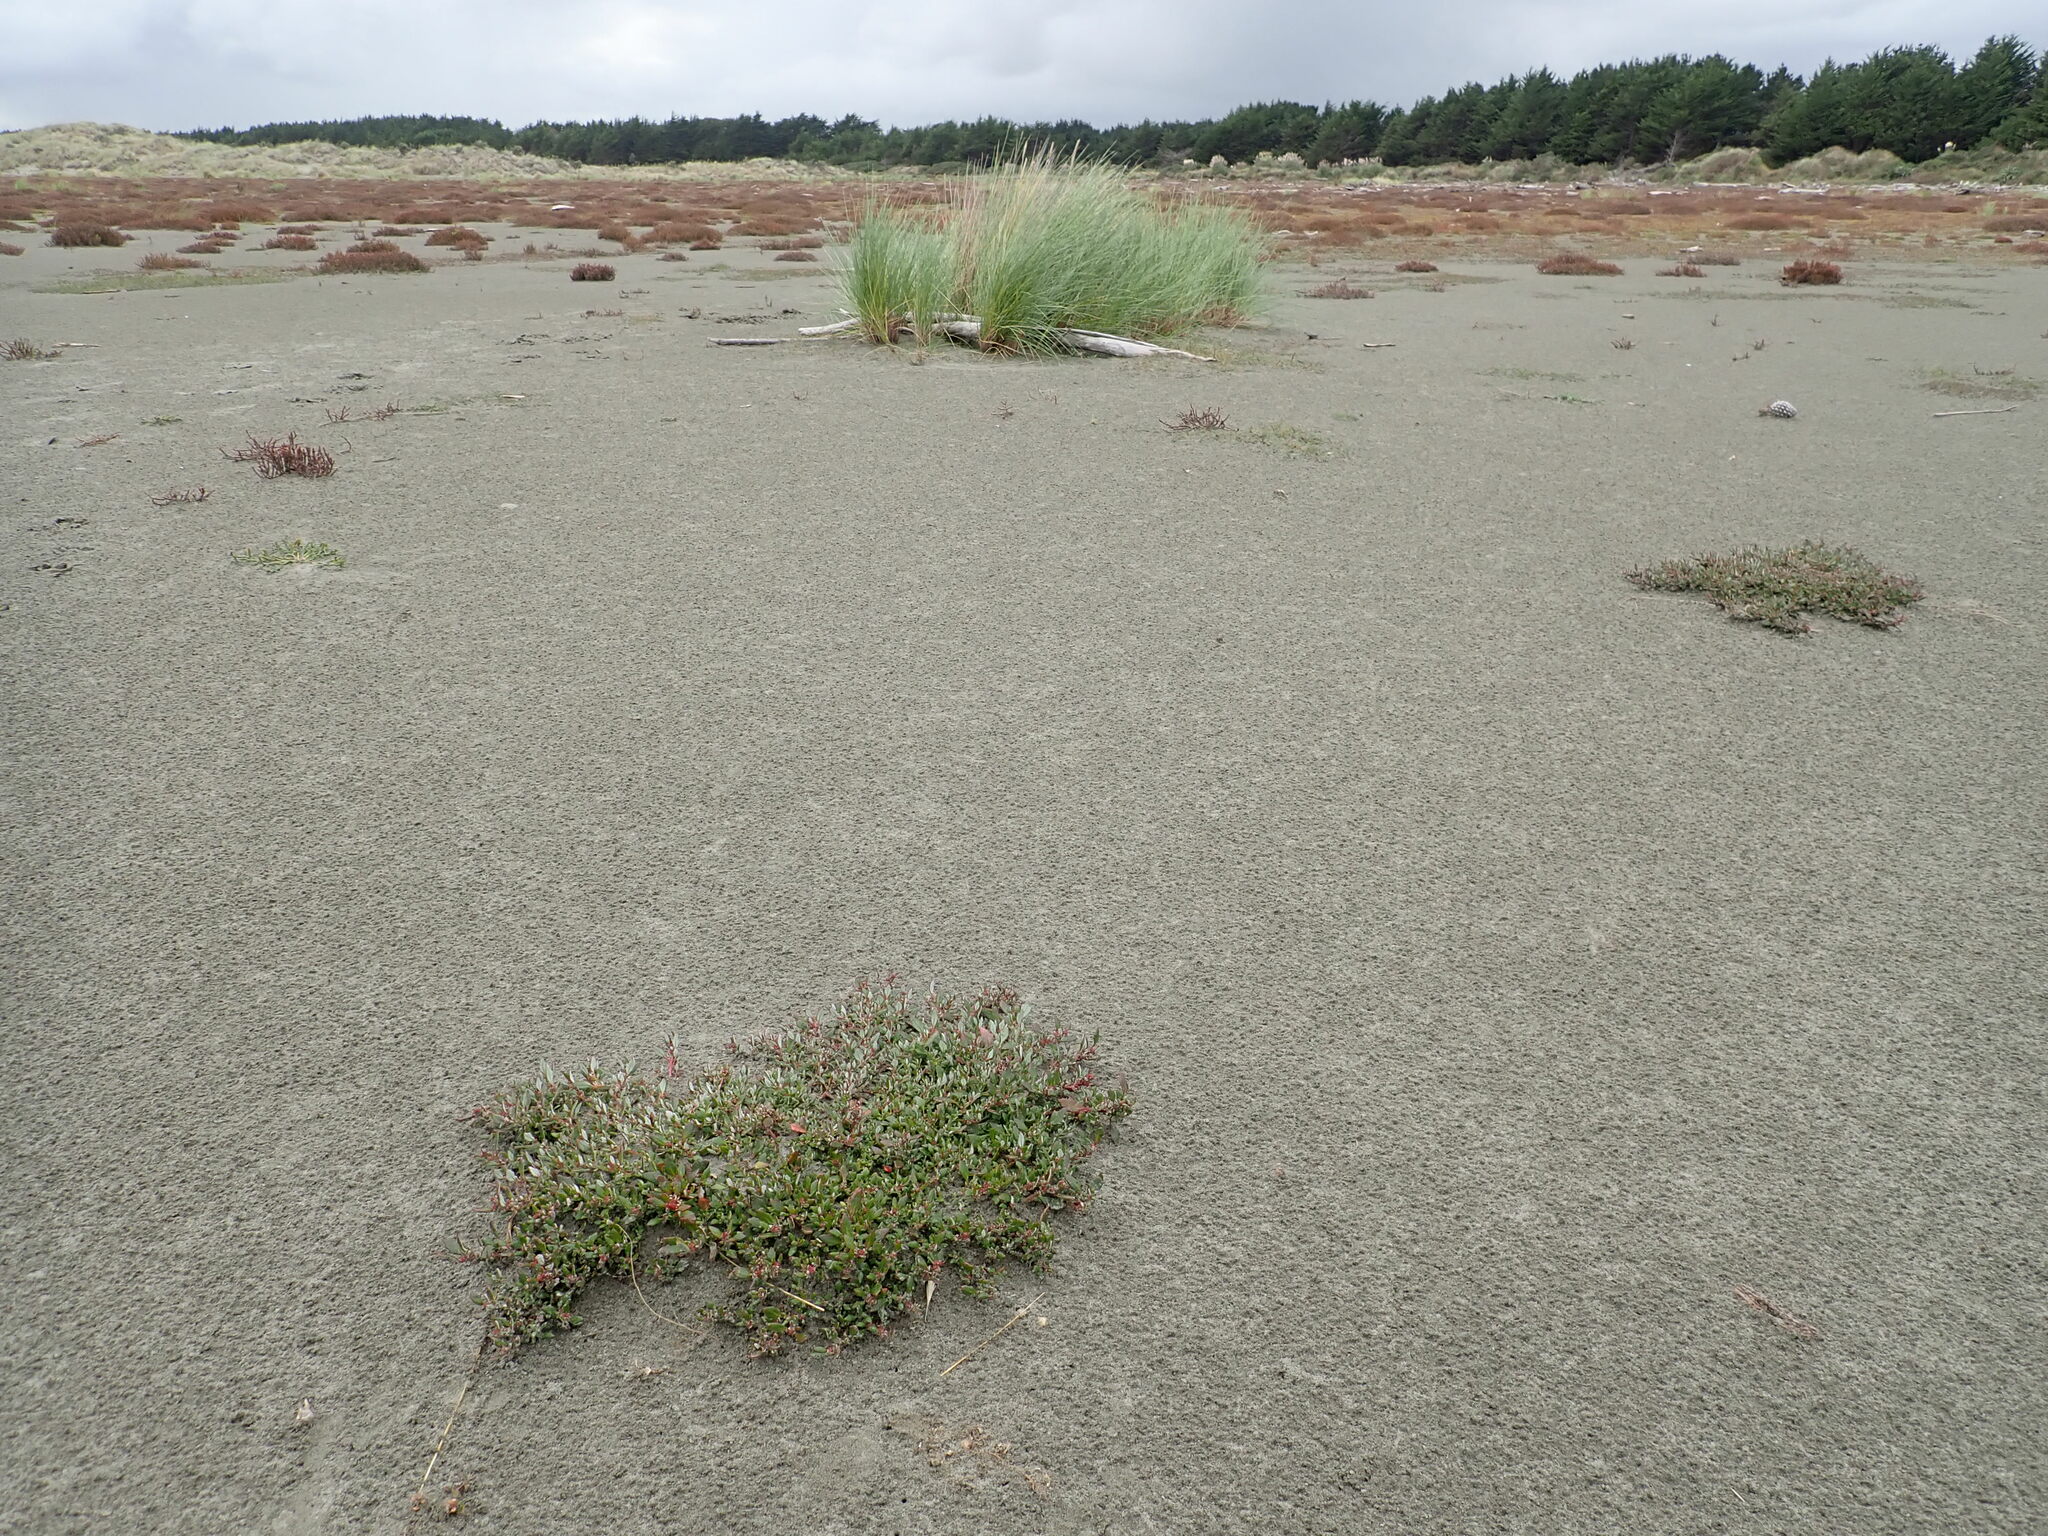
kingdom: Plantae
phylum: Tracheophyta
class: Magnoliopsida
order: Caryophyllales
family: Amaranthaceae
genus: Oxybasis
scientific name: Oxybasis ambigua
